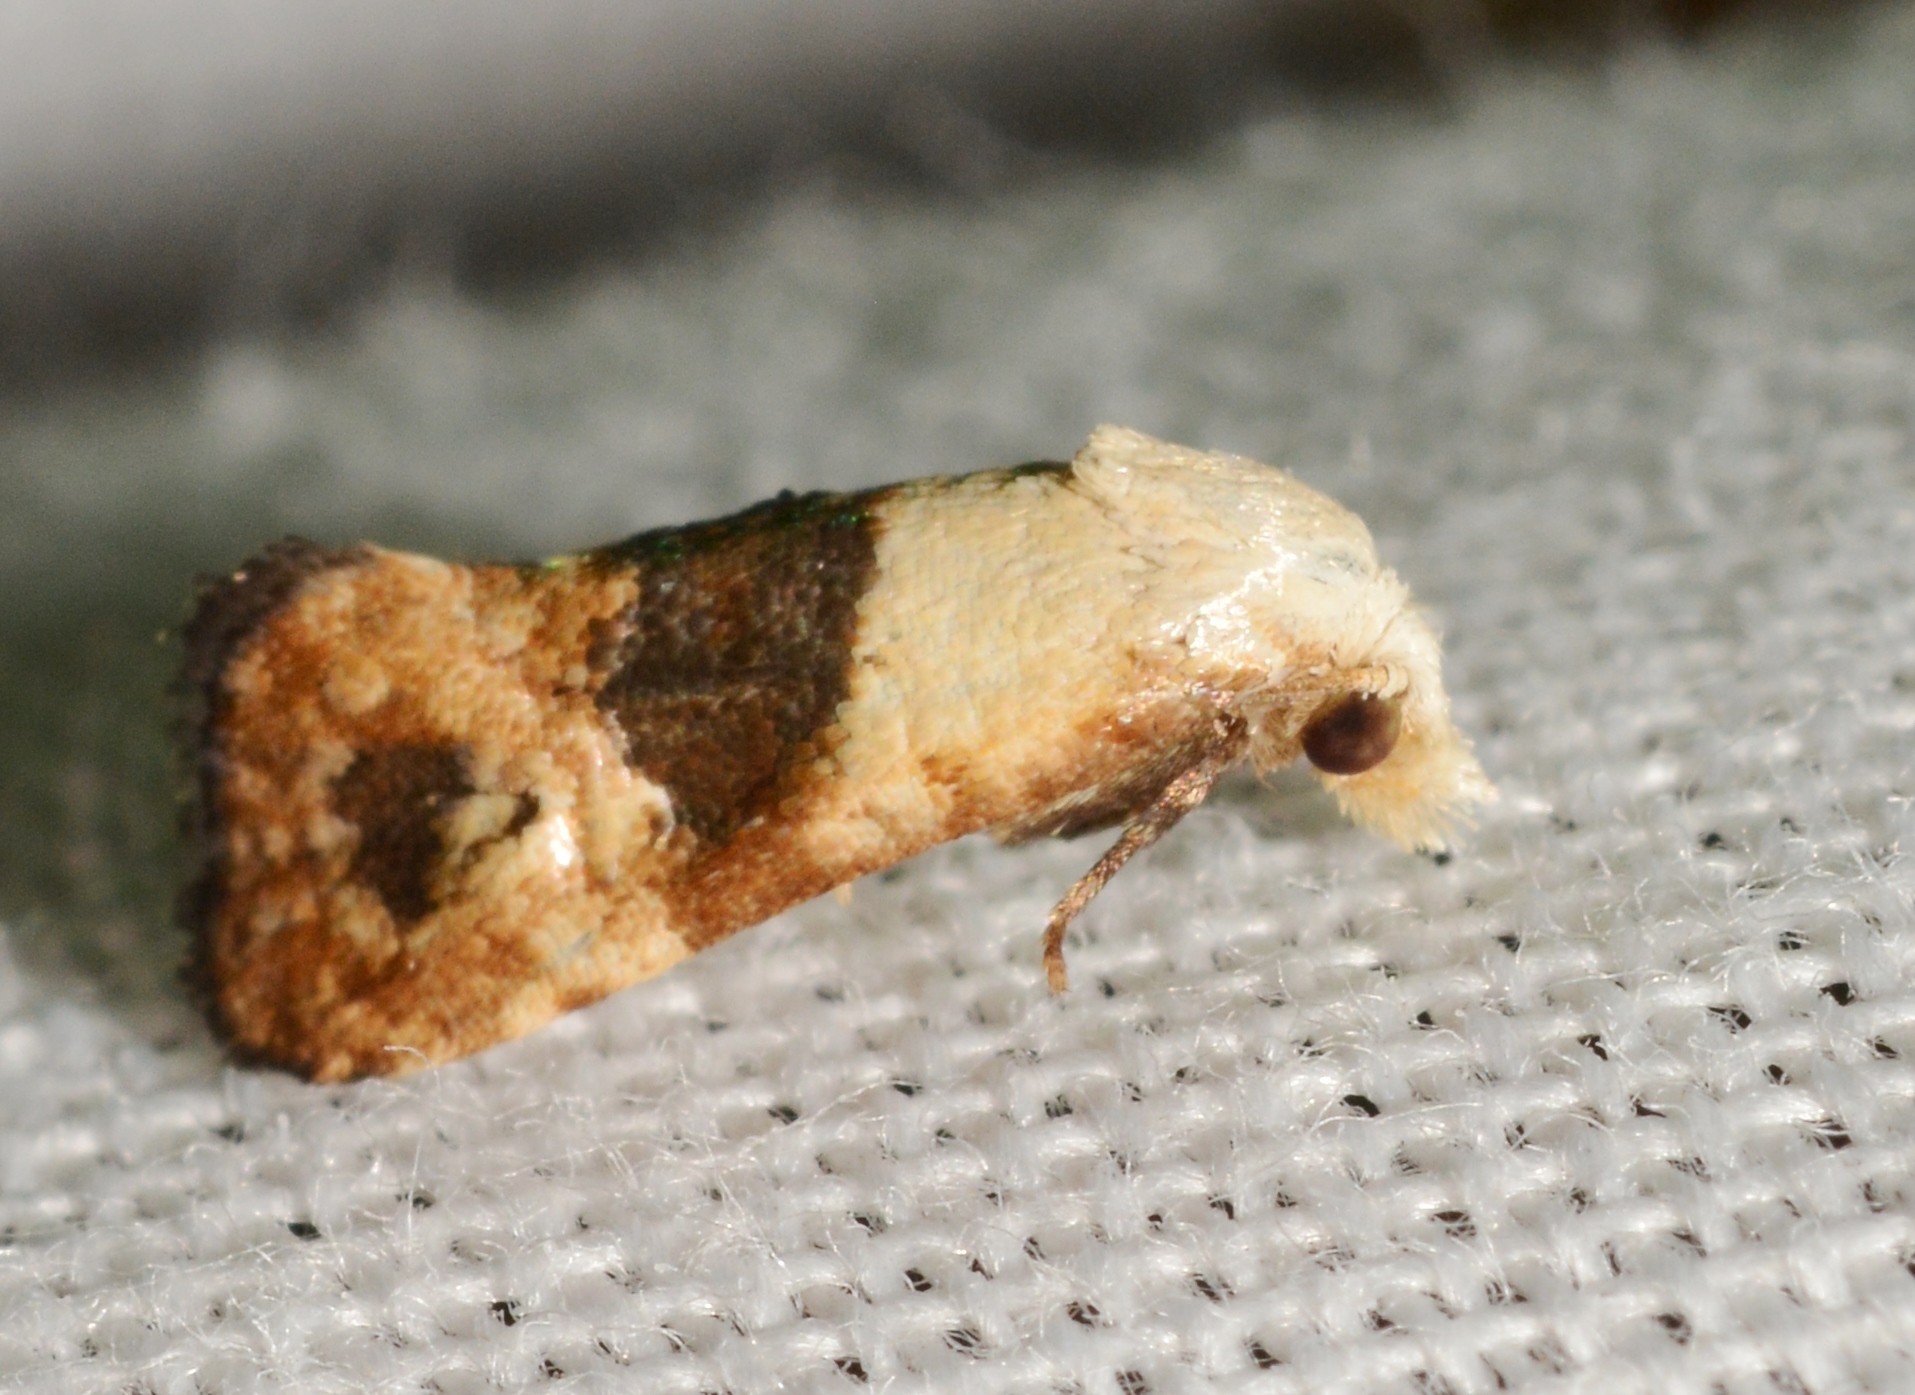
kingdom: Animalia
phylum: Arthropoda
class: Insecta
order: Lepidoptera
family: Tortricidae
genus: Eugnosta
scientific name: Eugnosta erigeronana
